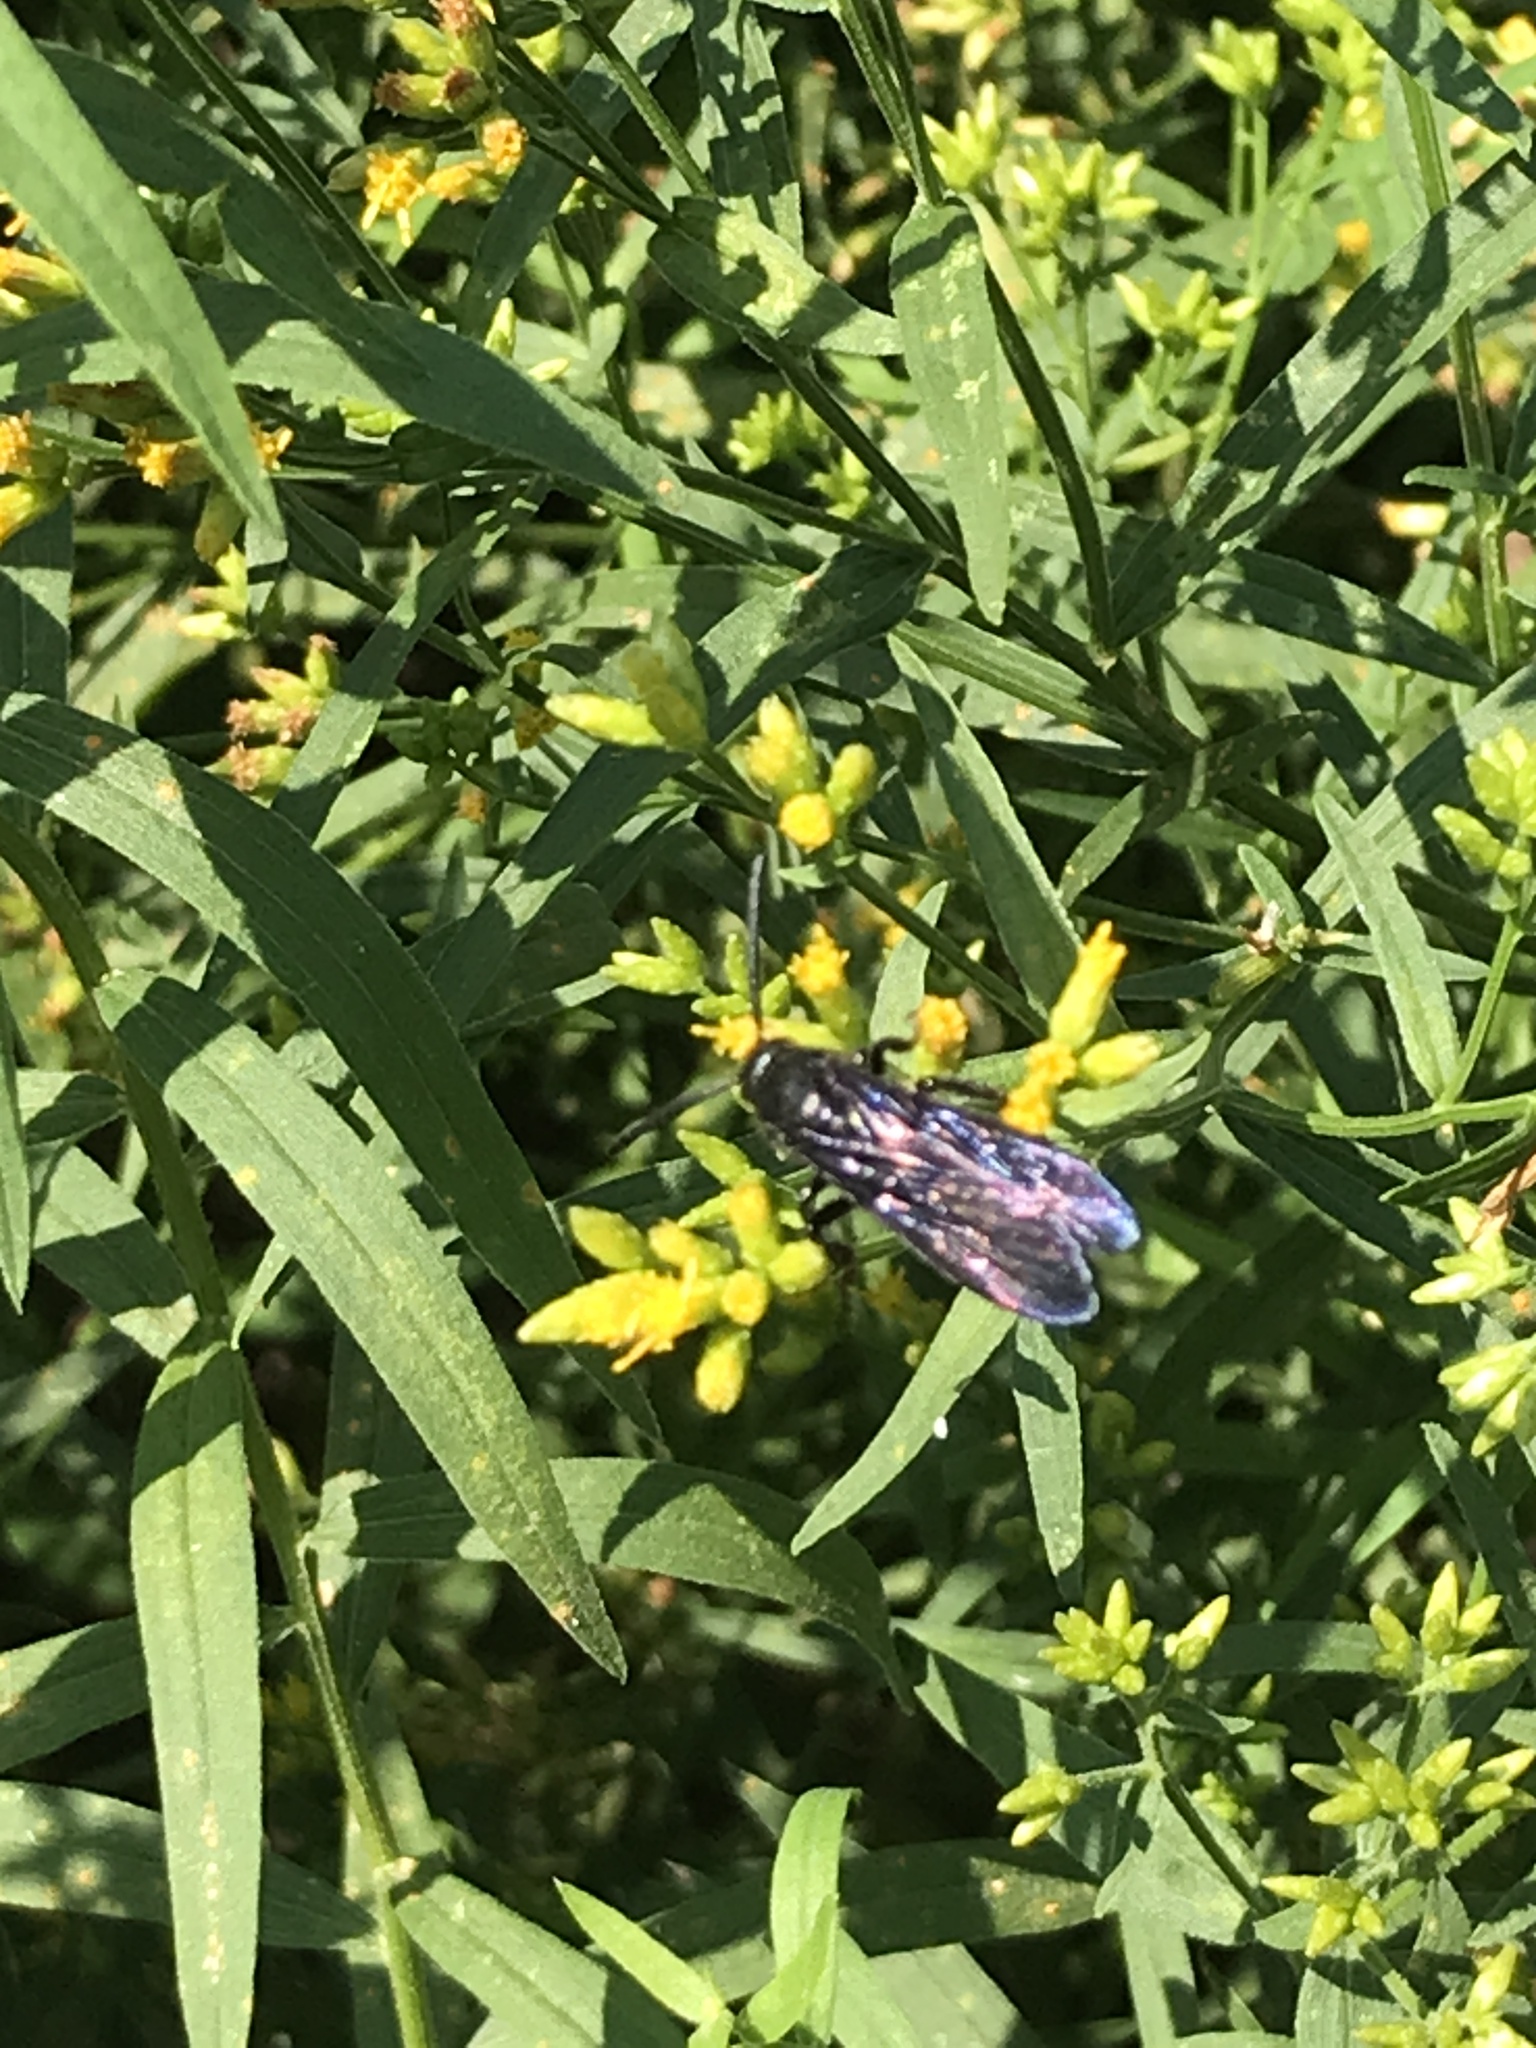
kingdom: Animalia
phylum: Arthropoda
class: Insecta
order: Hymenoptera
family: Scoliidae
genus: Scolia
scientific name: Scolia dubia
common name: Blue-winged scoliid wasp
